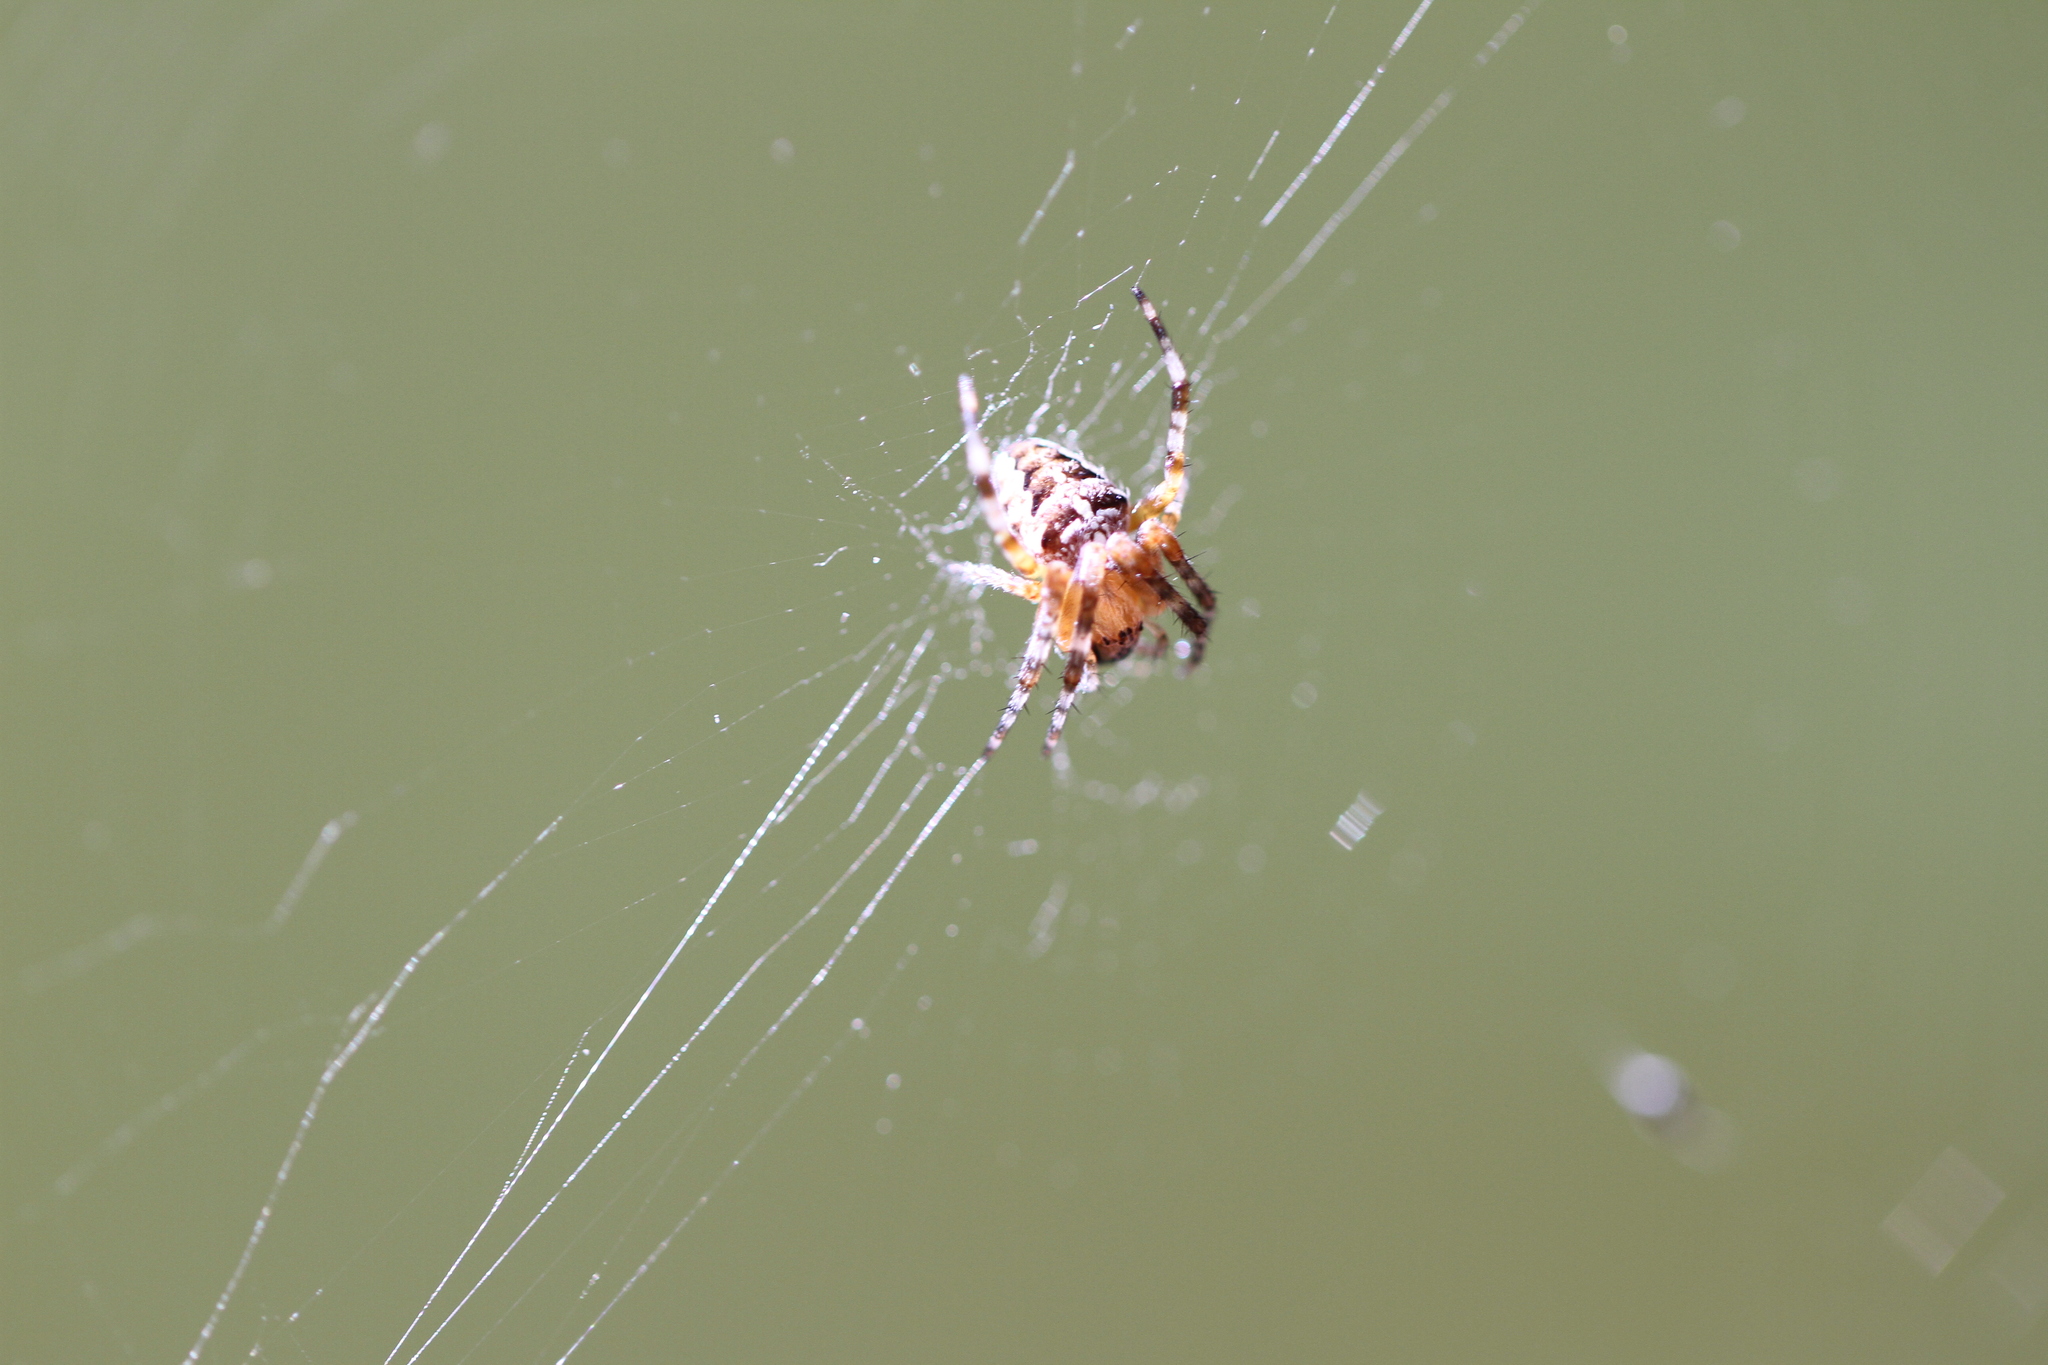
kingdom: Animalia
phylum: Arthropoda
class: Arachnida
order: Araneae
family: Araneidae
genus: Araneus
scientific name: Araneus diadematus
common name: Cross orbweaver
